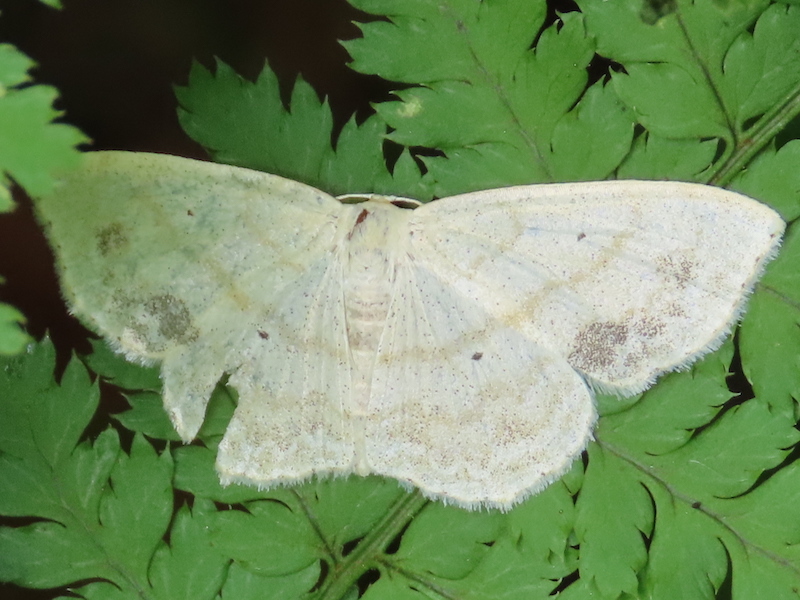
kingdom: Animalia
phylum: Arthropoda
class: Insecta
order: Lepidoptera
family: Geometridae
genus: Scopula
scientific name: Scopula limboundata
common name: Large lace border
